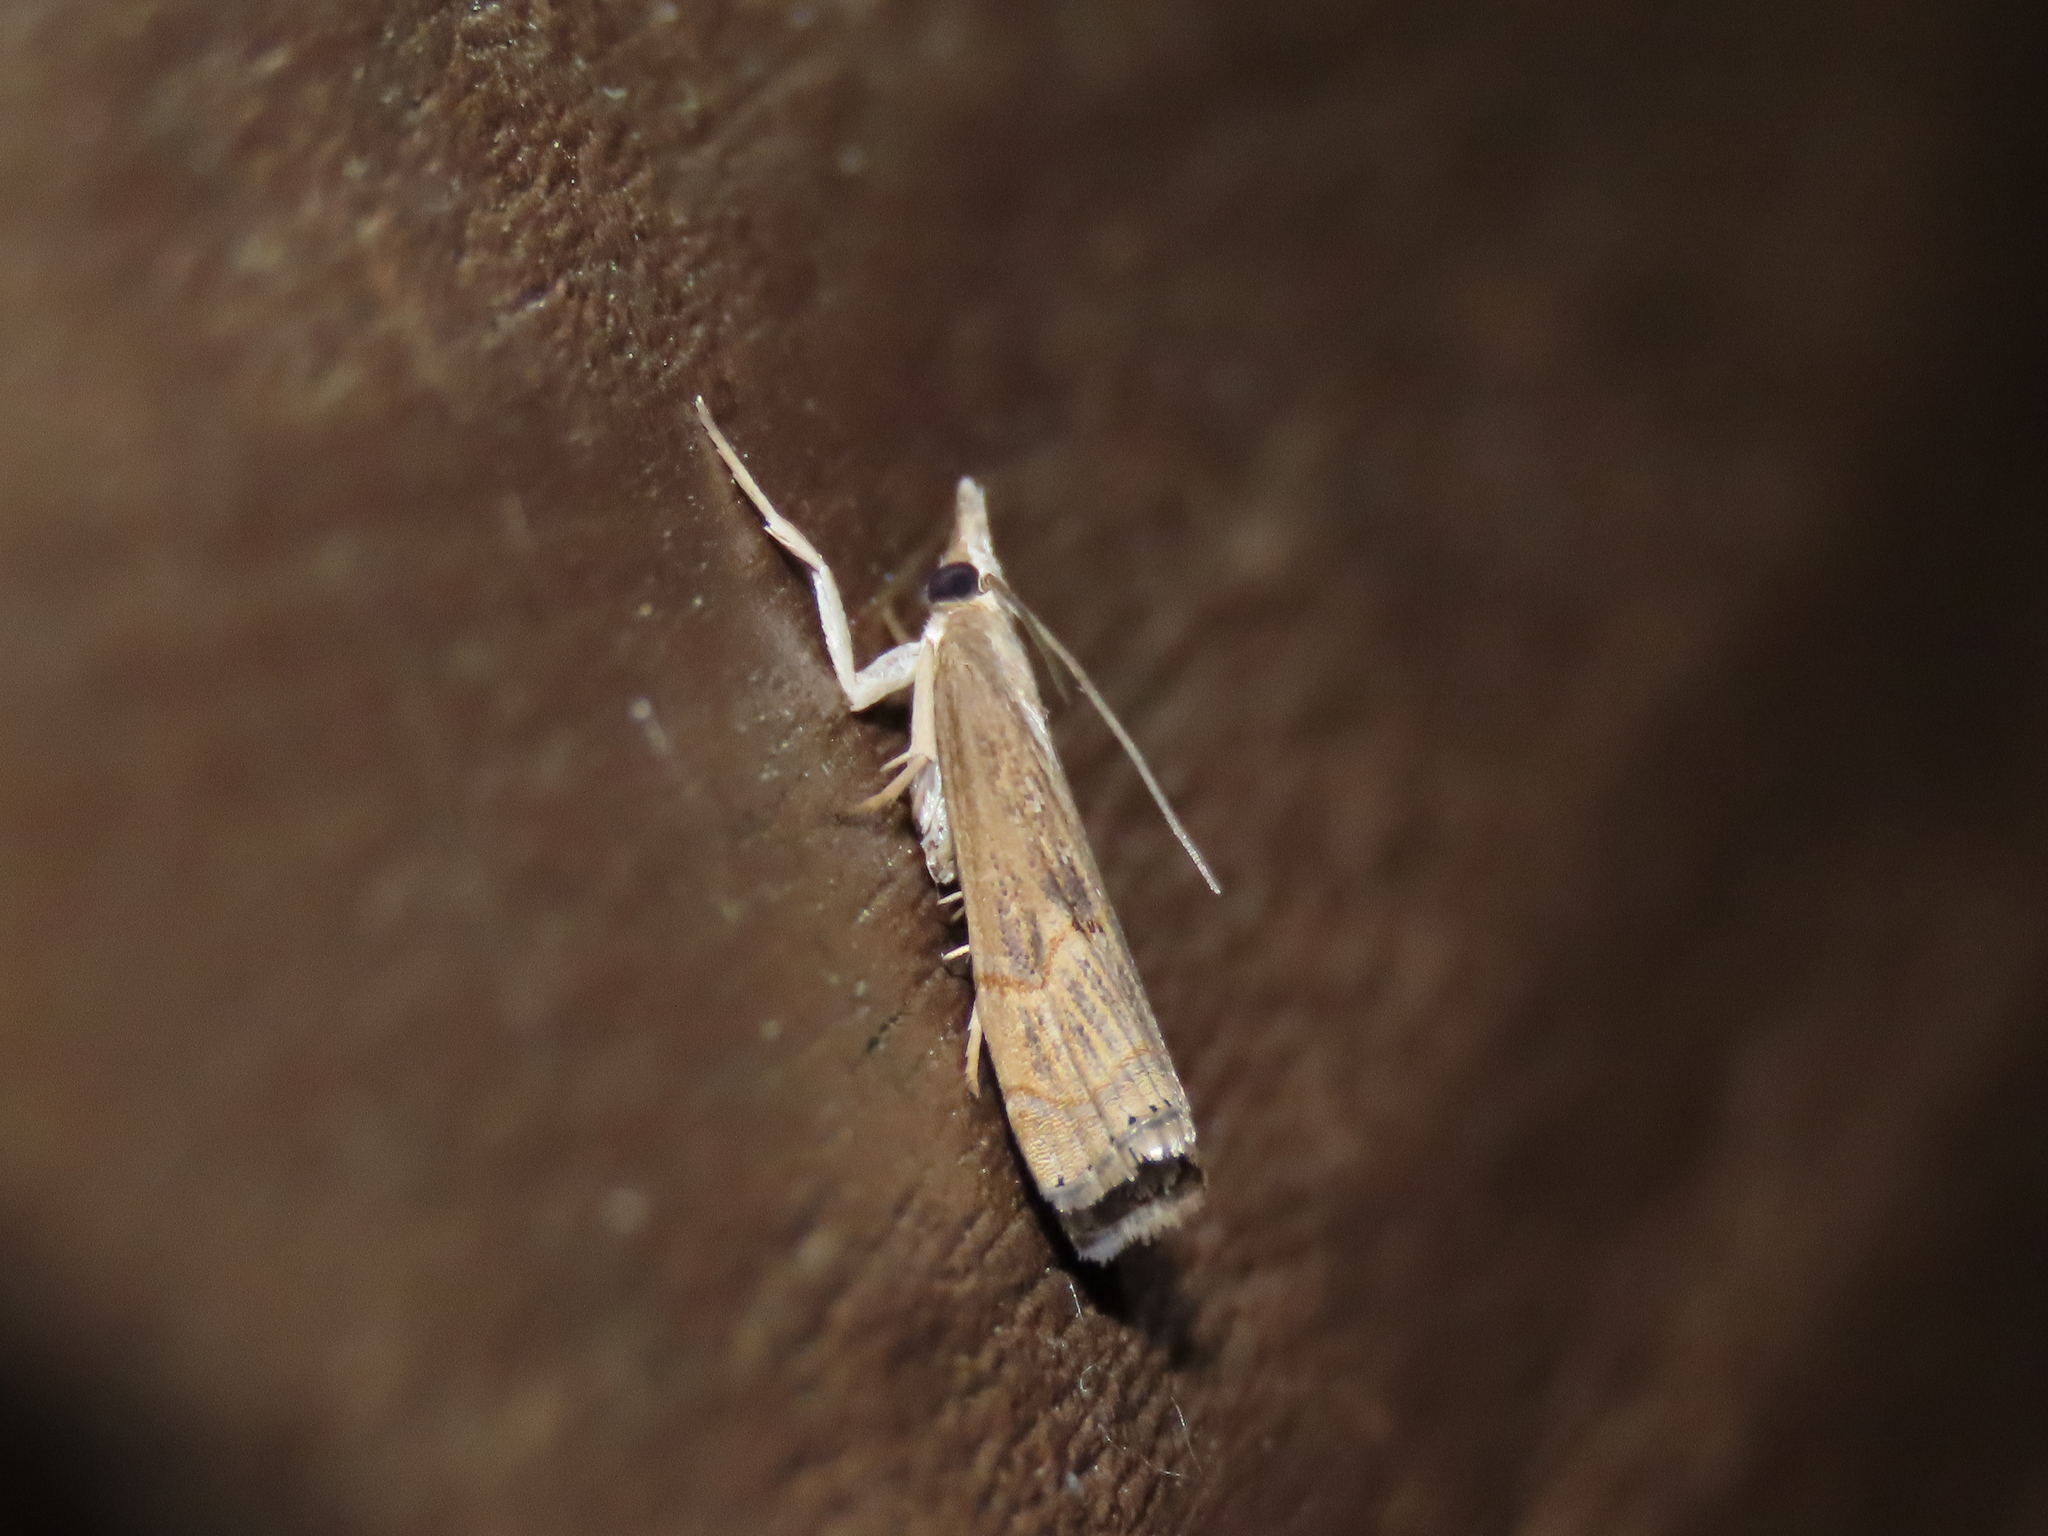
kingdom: Animalia
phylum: Arthropoda
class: Insecta
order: Lepidoptera
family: Crambidae
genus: Parapediasia
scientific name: Parapediasia teterellus
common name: Bluegrass webworm moth
